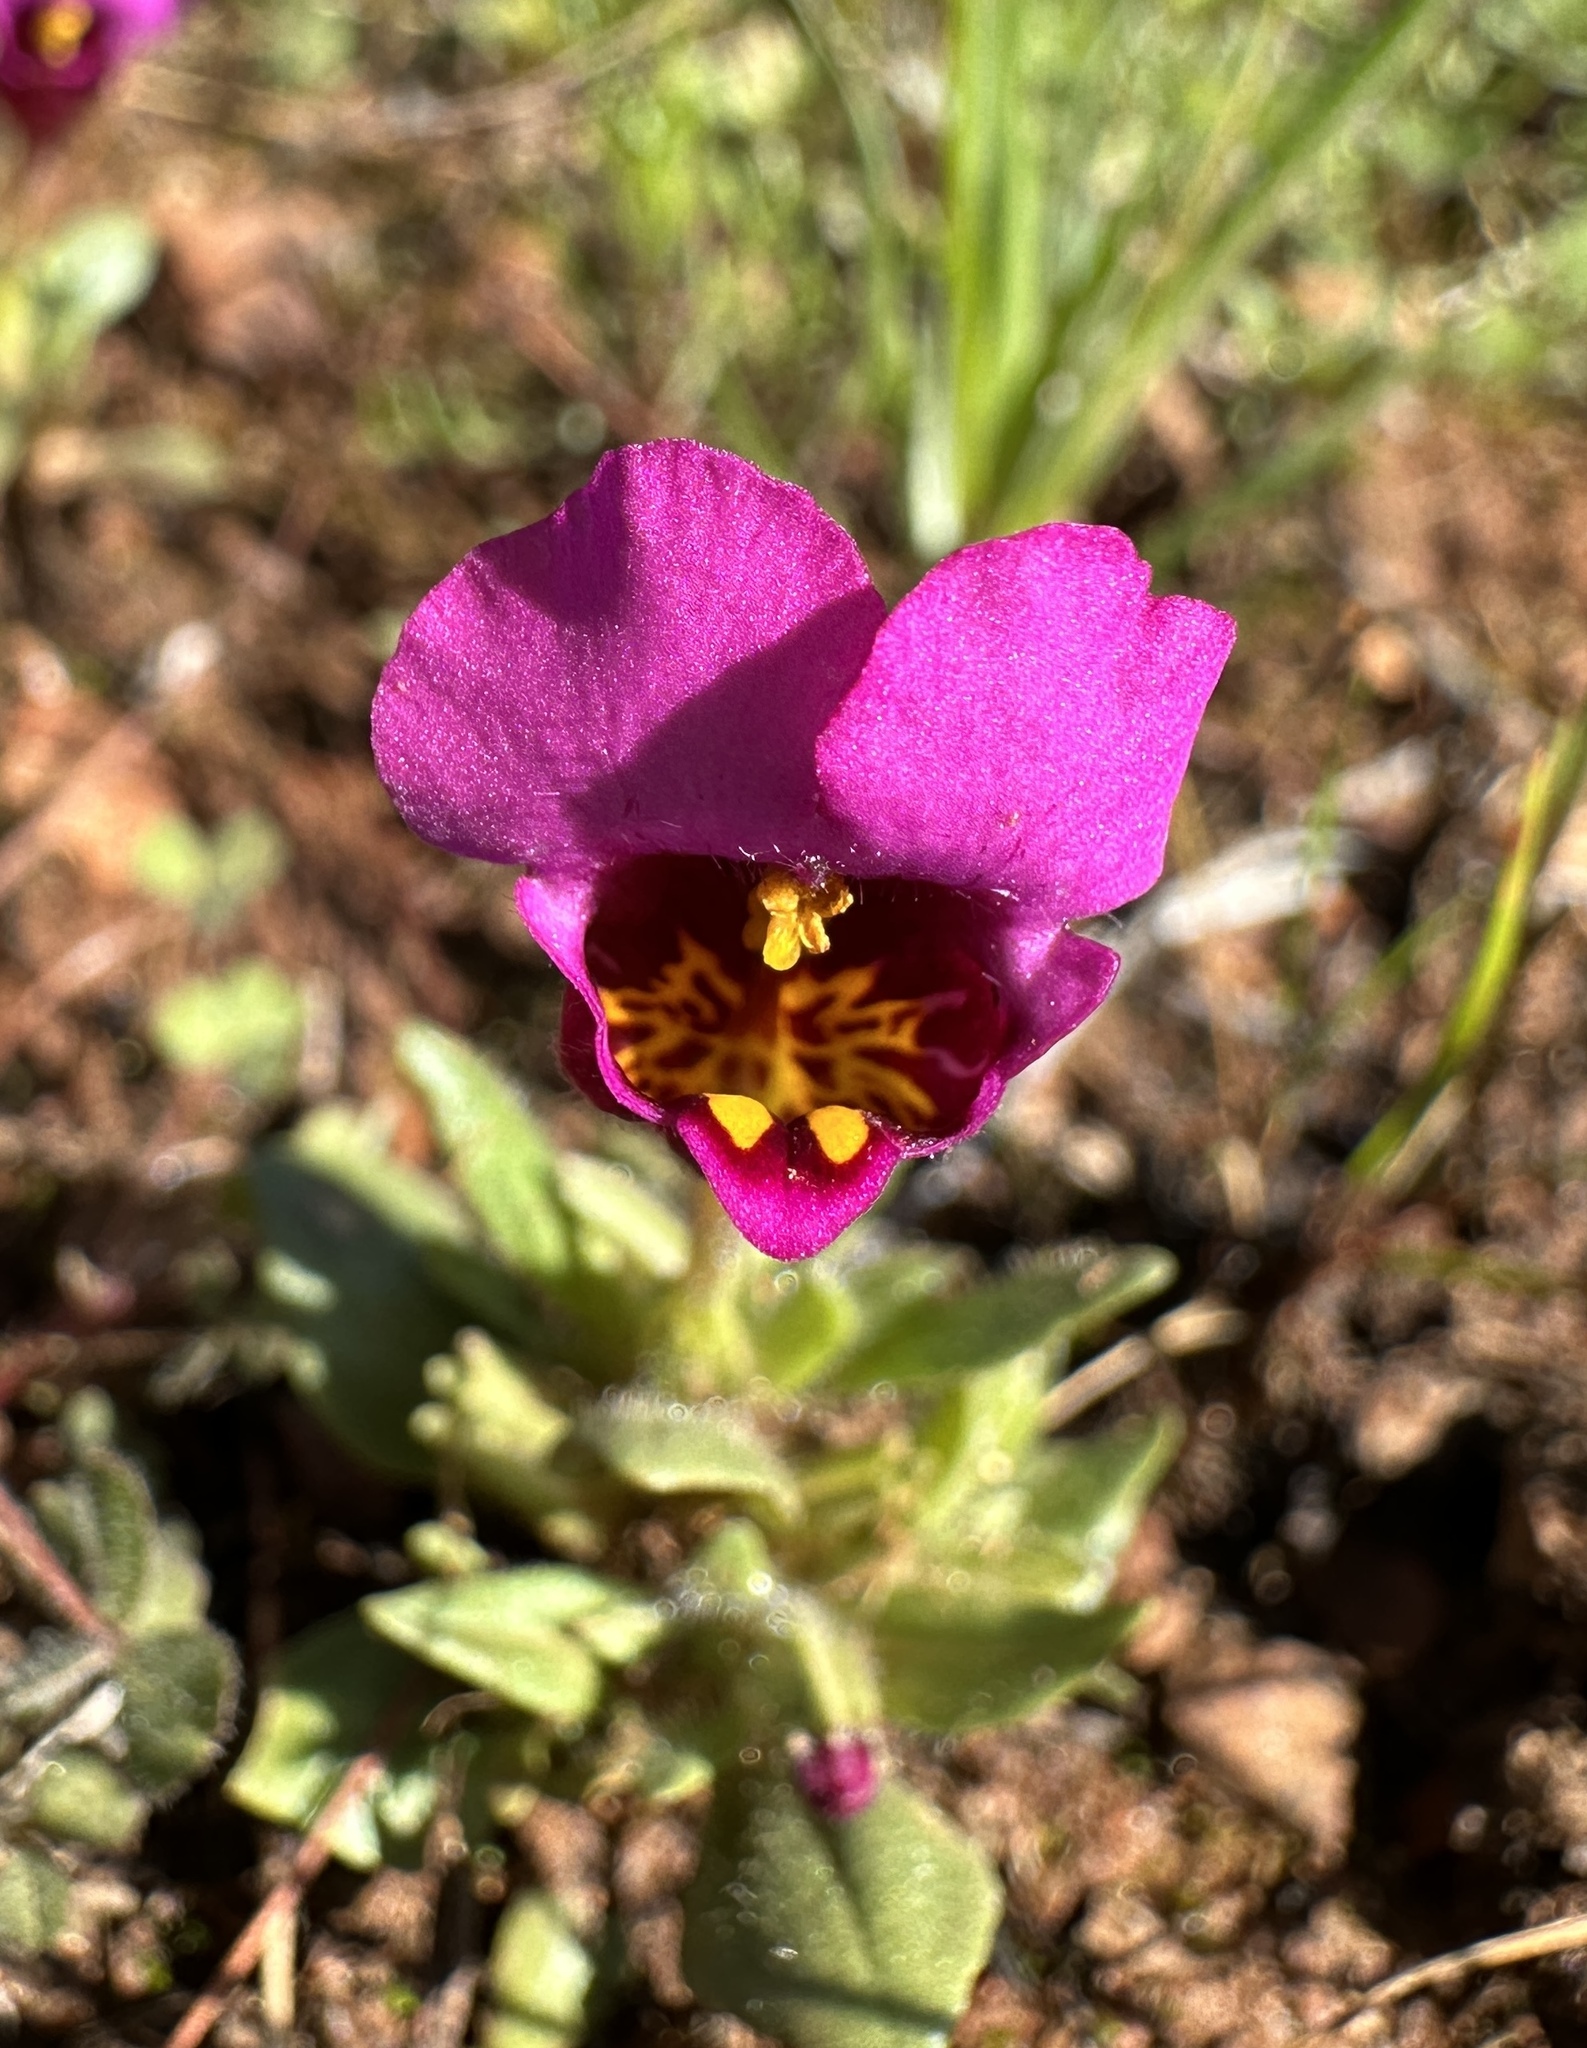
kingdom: Plantae
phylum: Tracheophyta
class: Magnoliopsida
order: Lamiales
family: Phrymaceae
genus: Diplacus
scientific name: Diplacus douglasii
